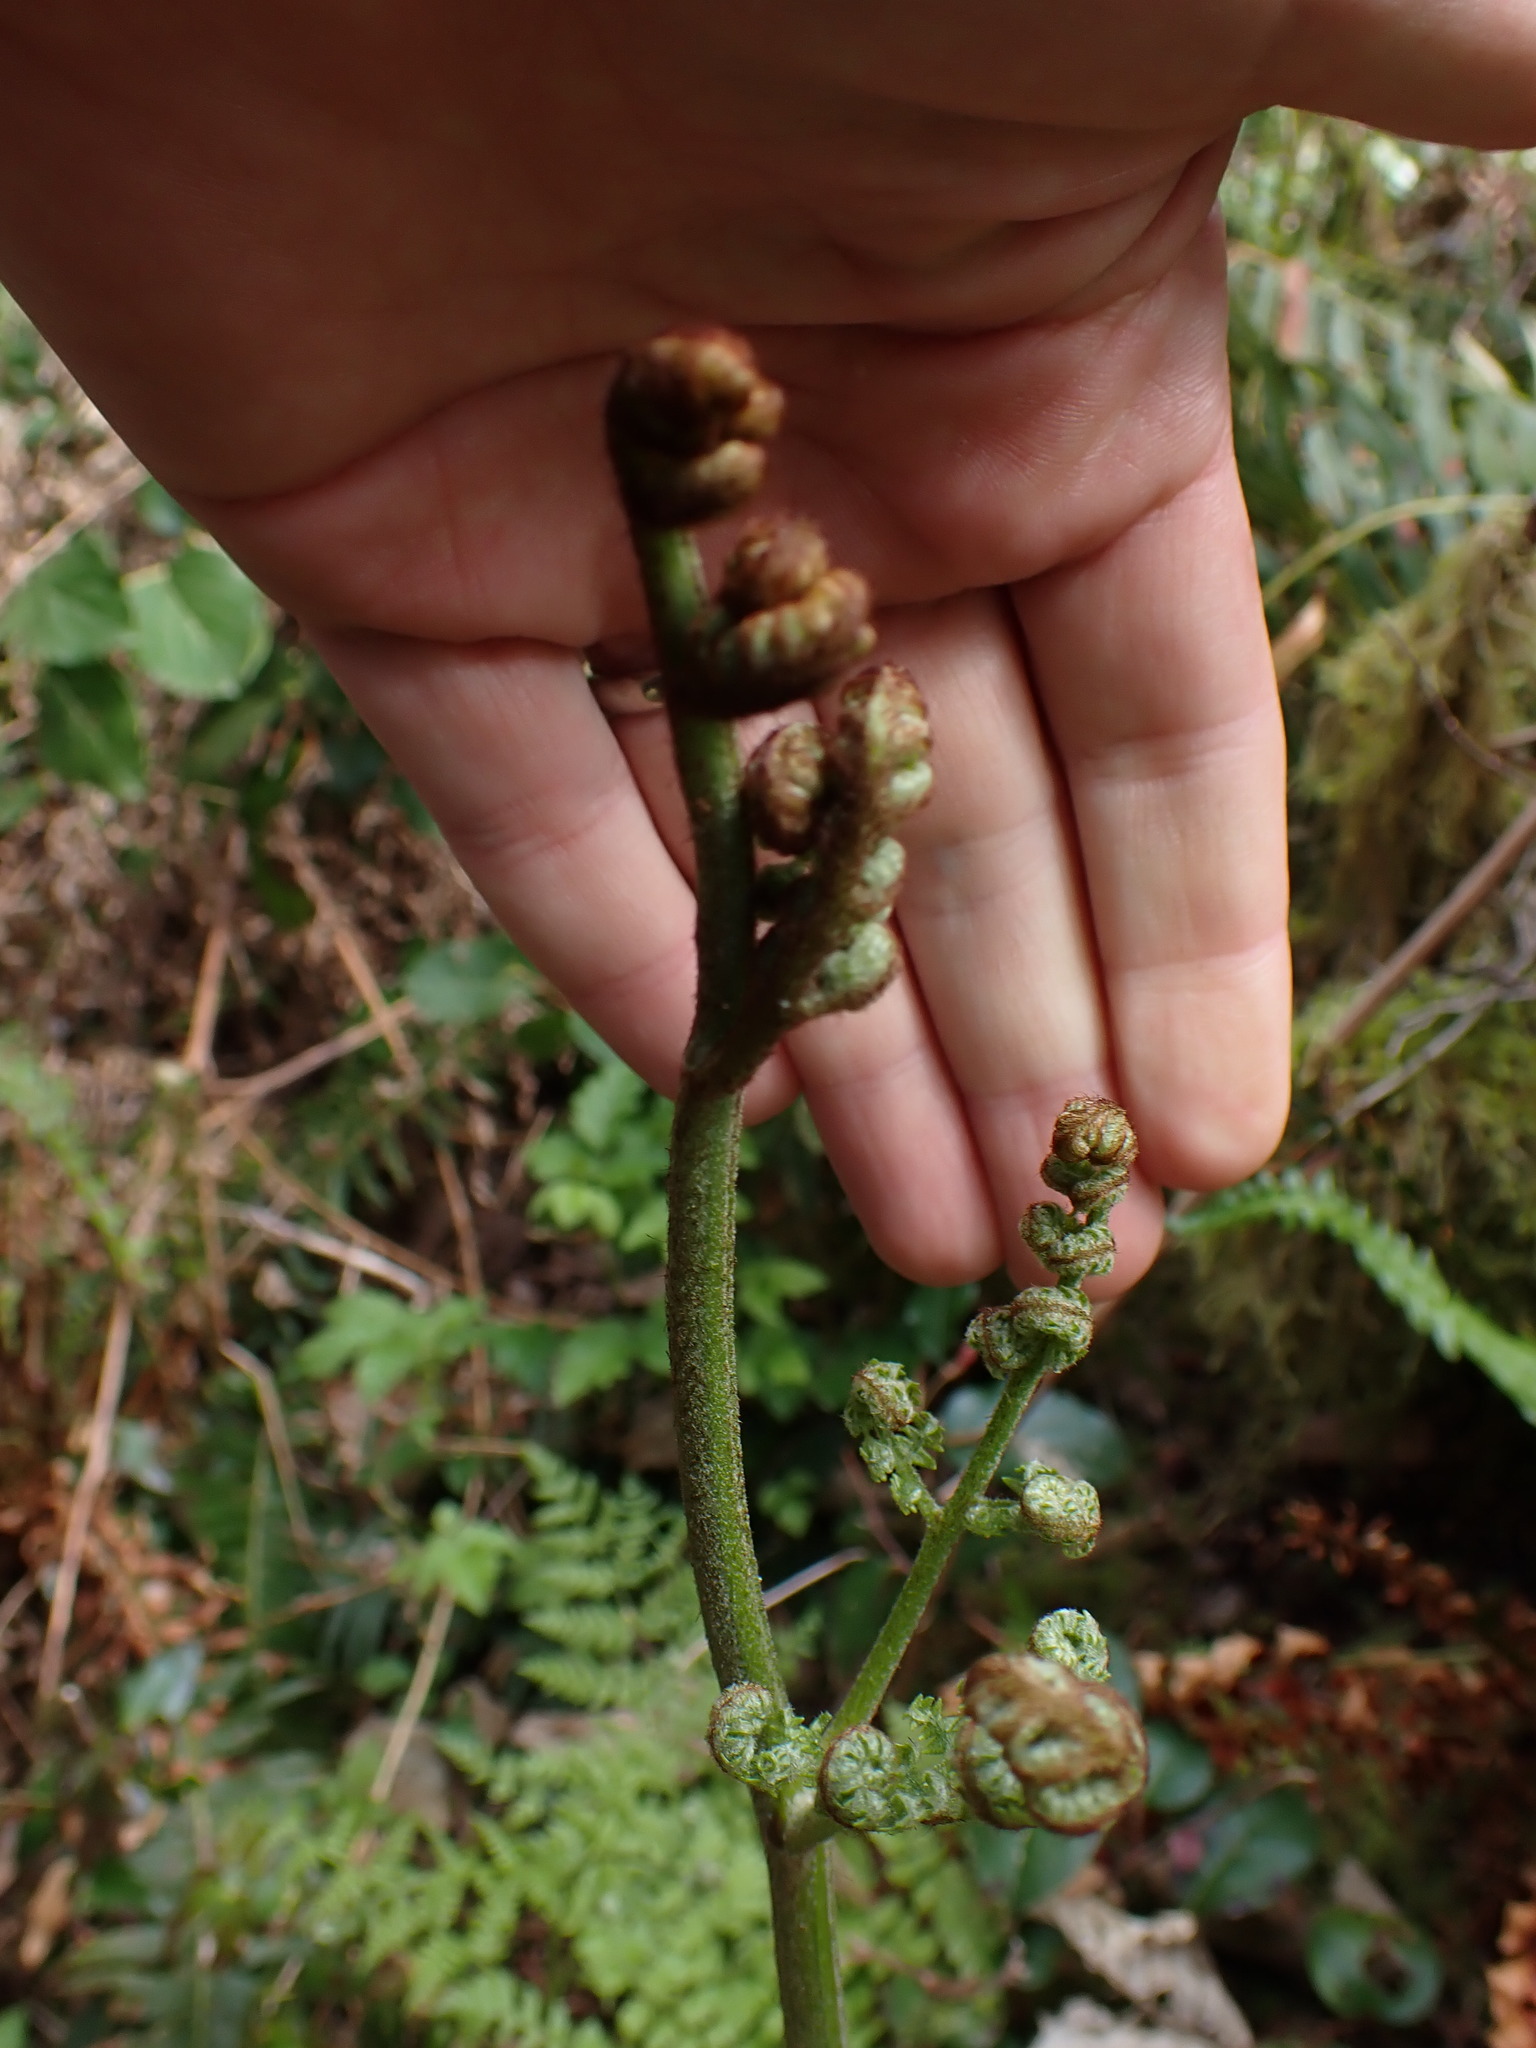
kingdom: Plantae
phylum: Tracheophyta
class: Polypodiopsida
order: Polypodiales
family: Dennstaedtiaceae
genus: Pteridium
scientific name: Pteridium aquilinum
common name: Bracken
